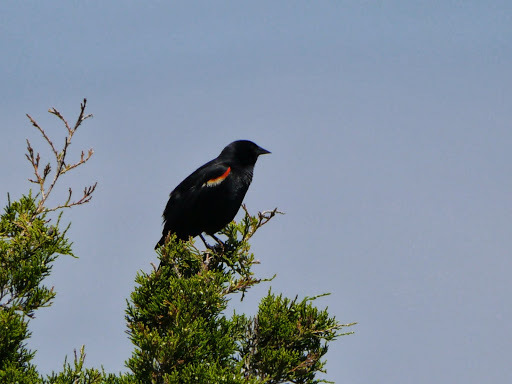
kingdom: Animalia
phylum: Chordata
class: Aves
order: Passeriformes
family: Icteridae
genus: Agelaius
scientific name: Agelaius phoeniceus
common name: Red-winged blackbird
